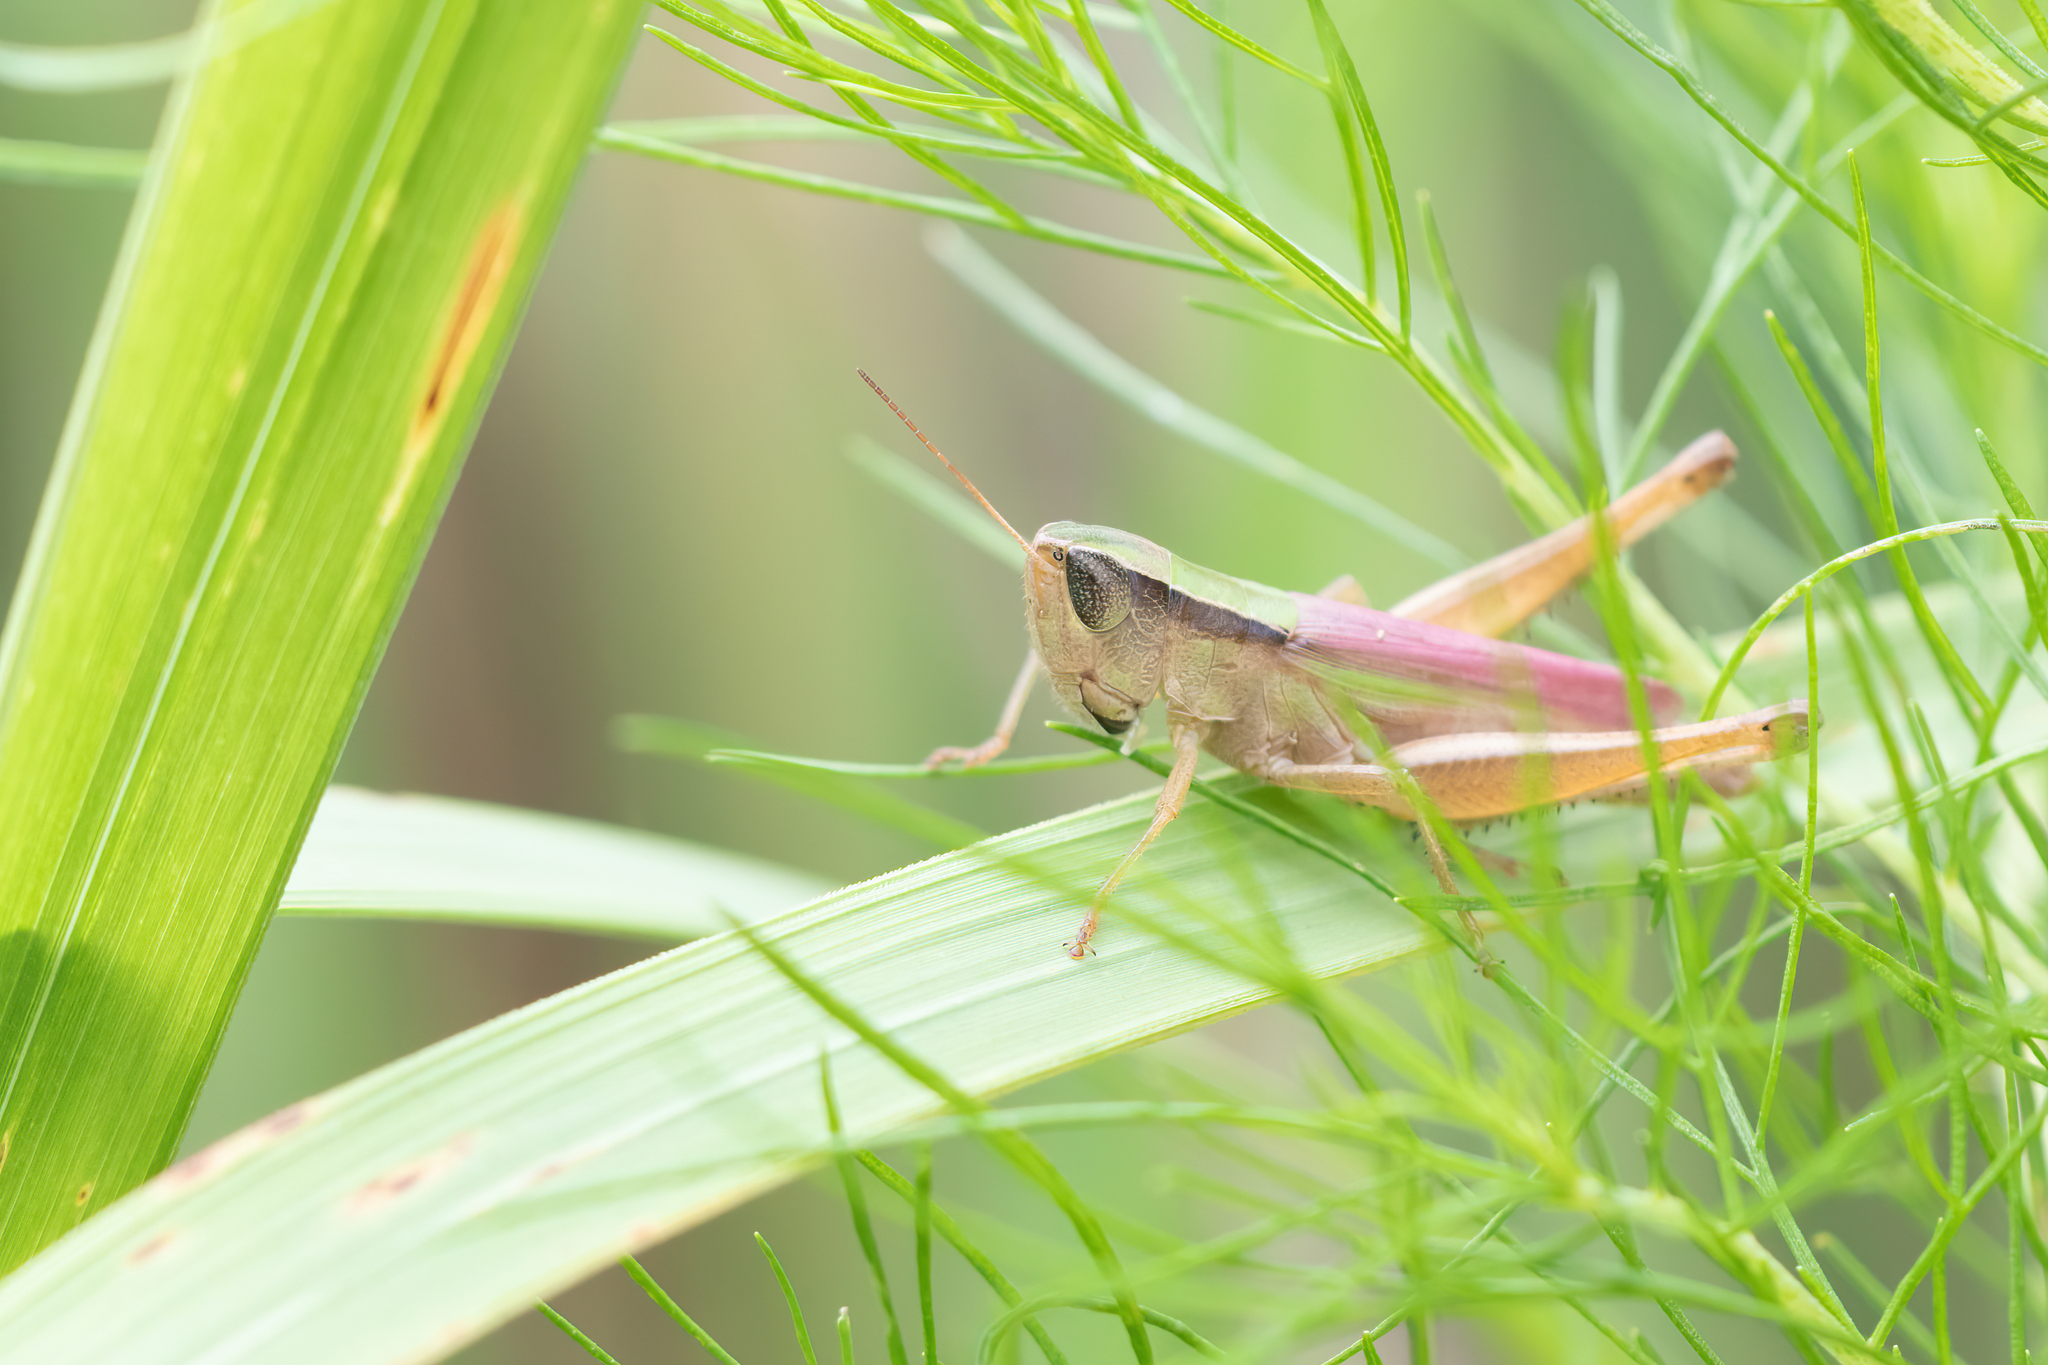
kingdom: Animalia
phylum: Arthropoda
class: Insecta
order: Orthoptera
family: Acrididae
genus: Dichromorpha
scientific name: Dichromorpha elegans
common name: Elegant grasshopper
